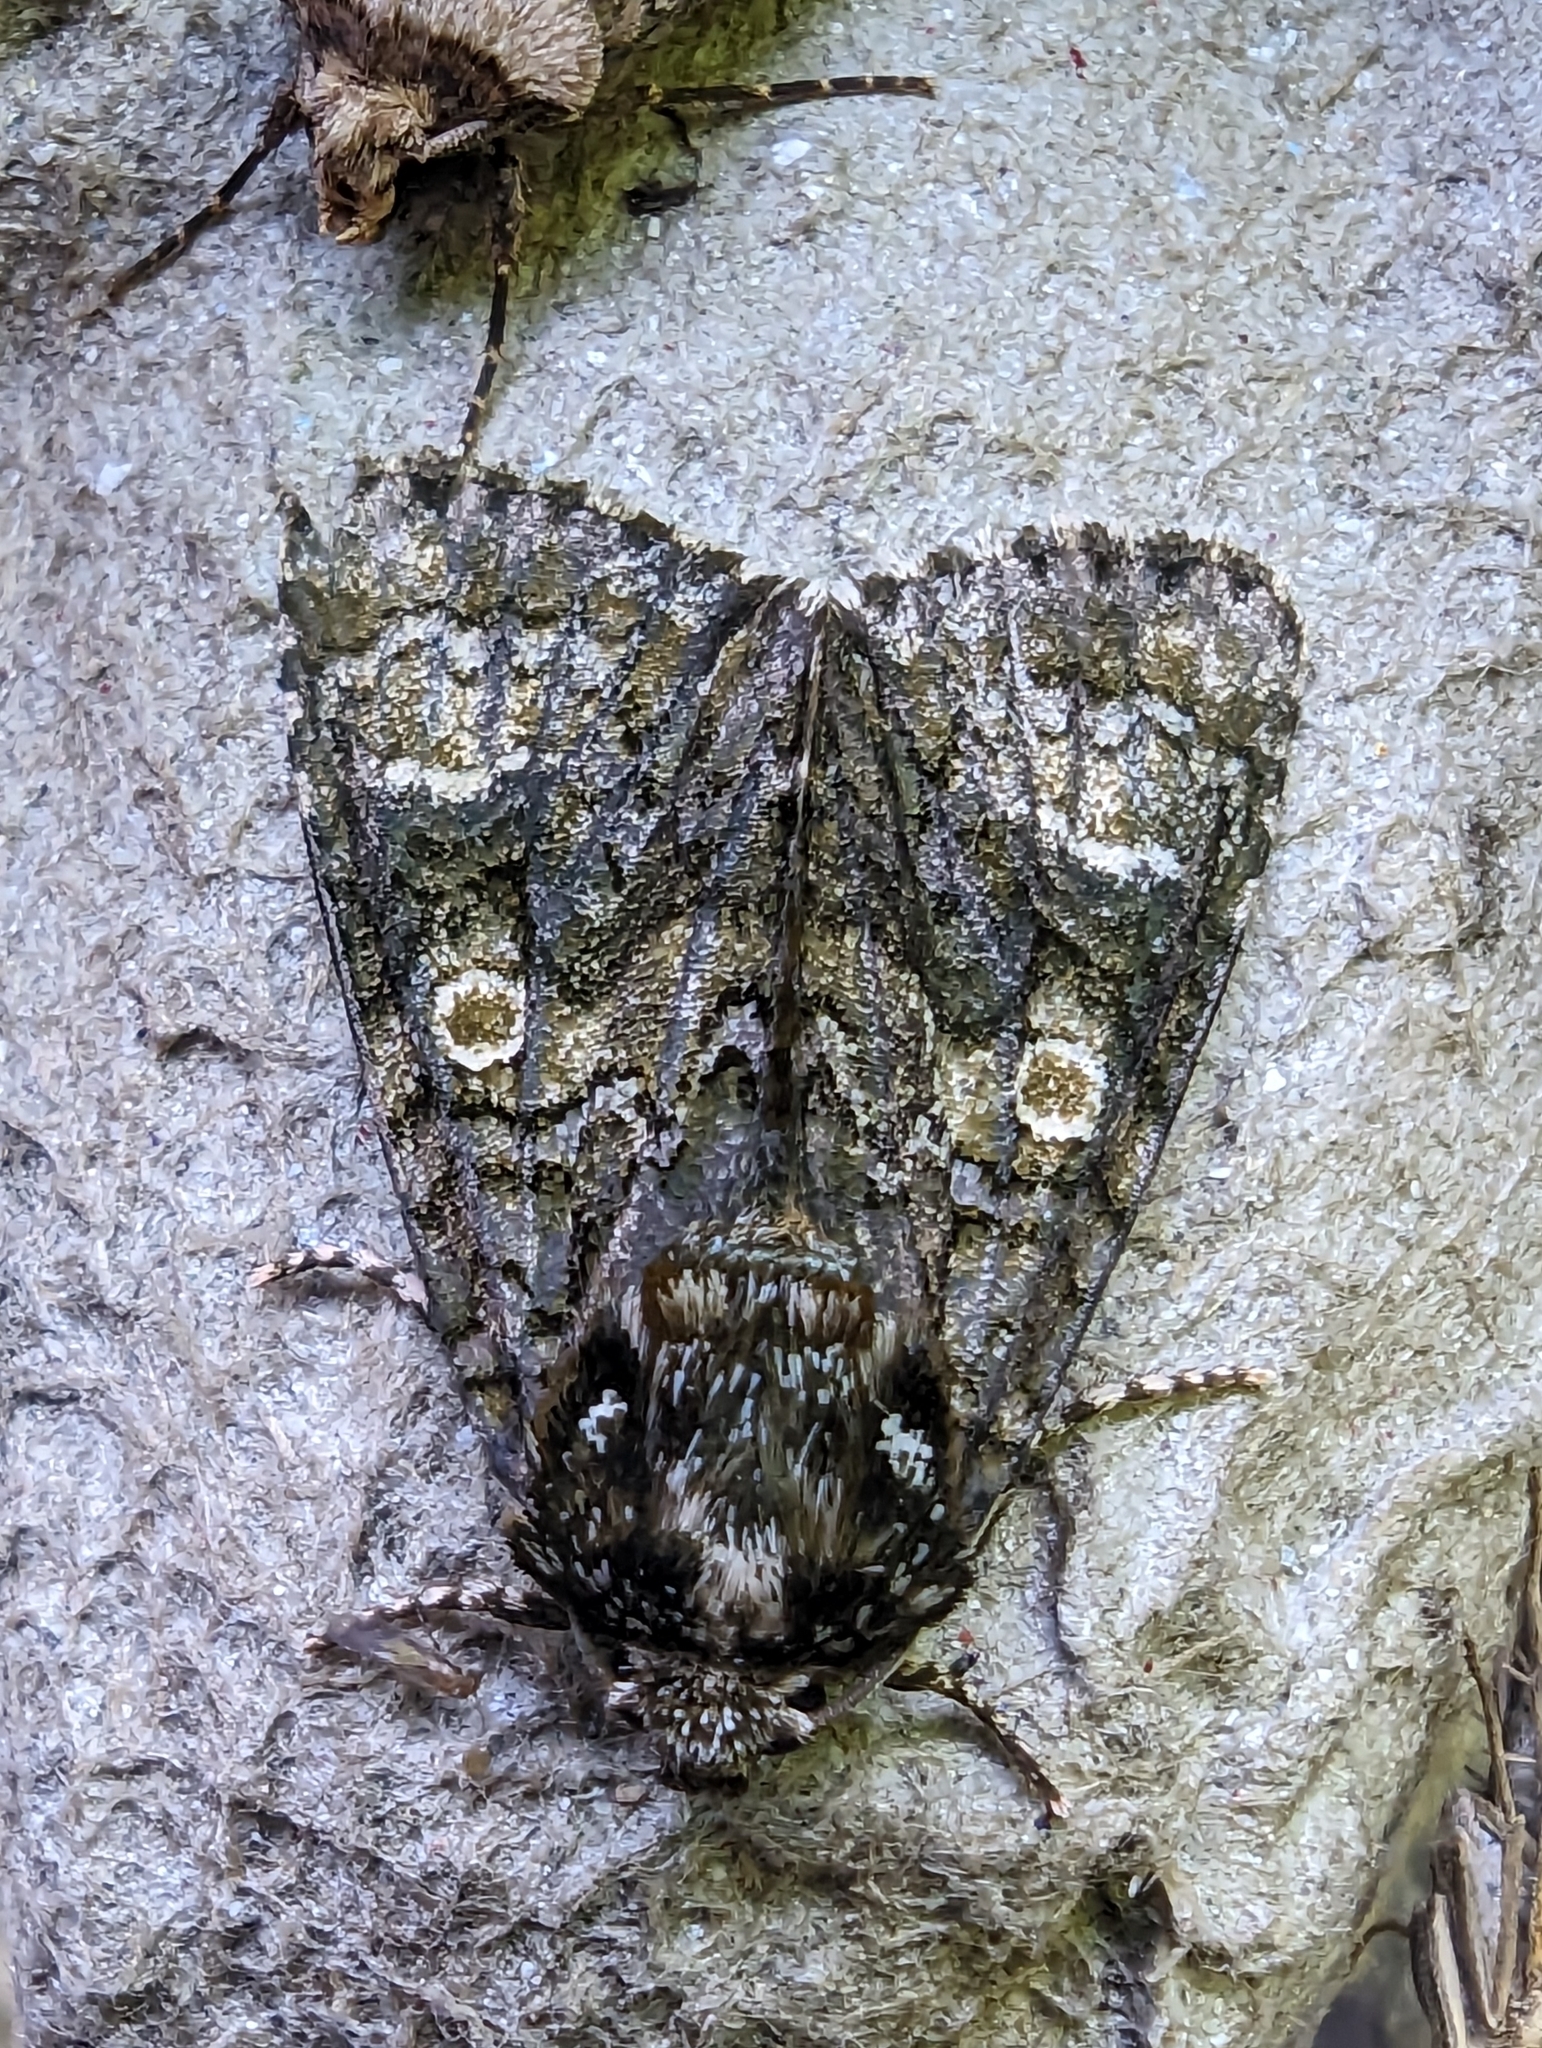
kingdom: Animalia
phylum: Arthropoda
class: Insecta
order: Lepidoptera
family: Noctuidae
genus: Craniophora
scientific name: Craniophora ligustri
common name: Coronet
